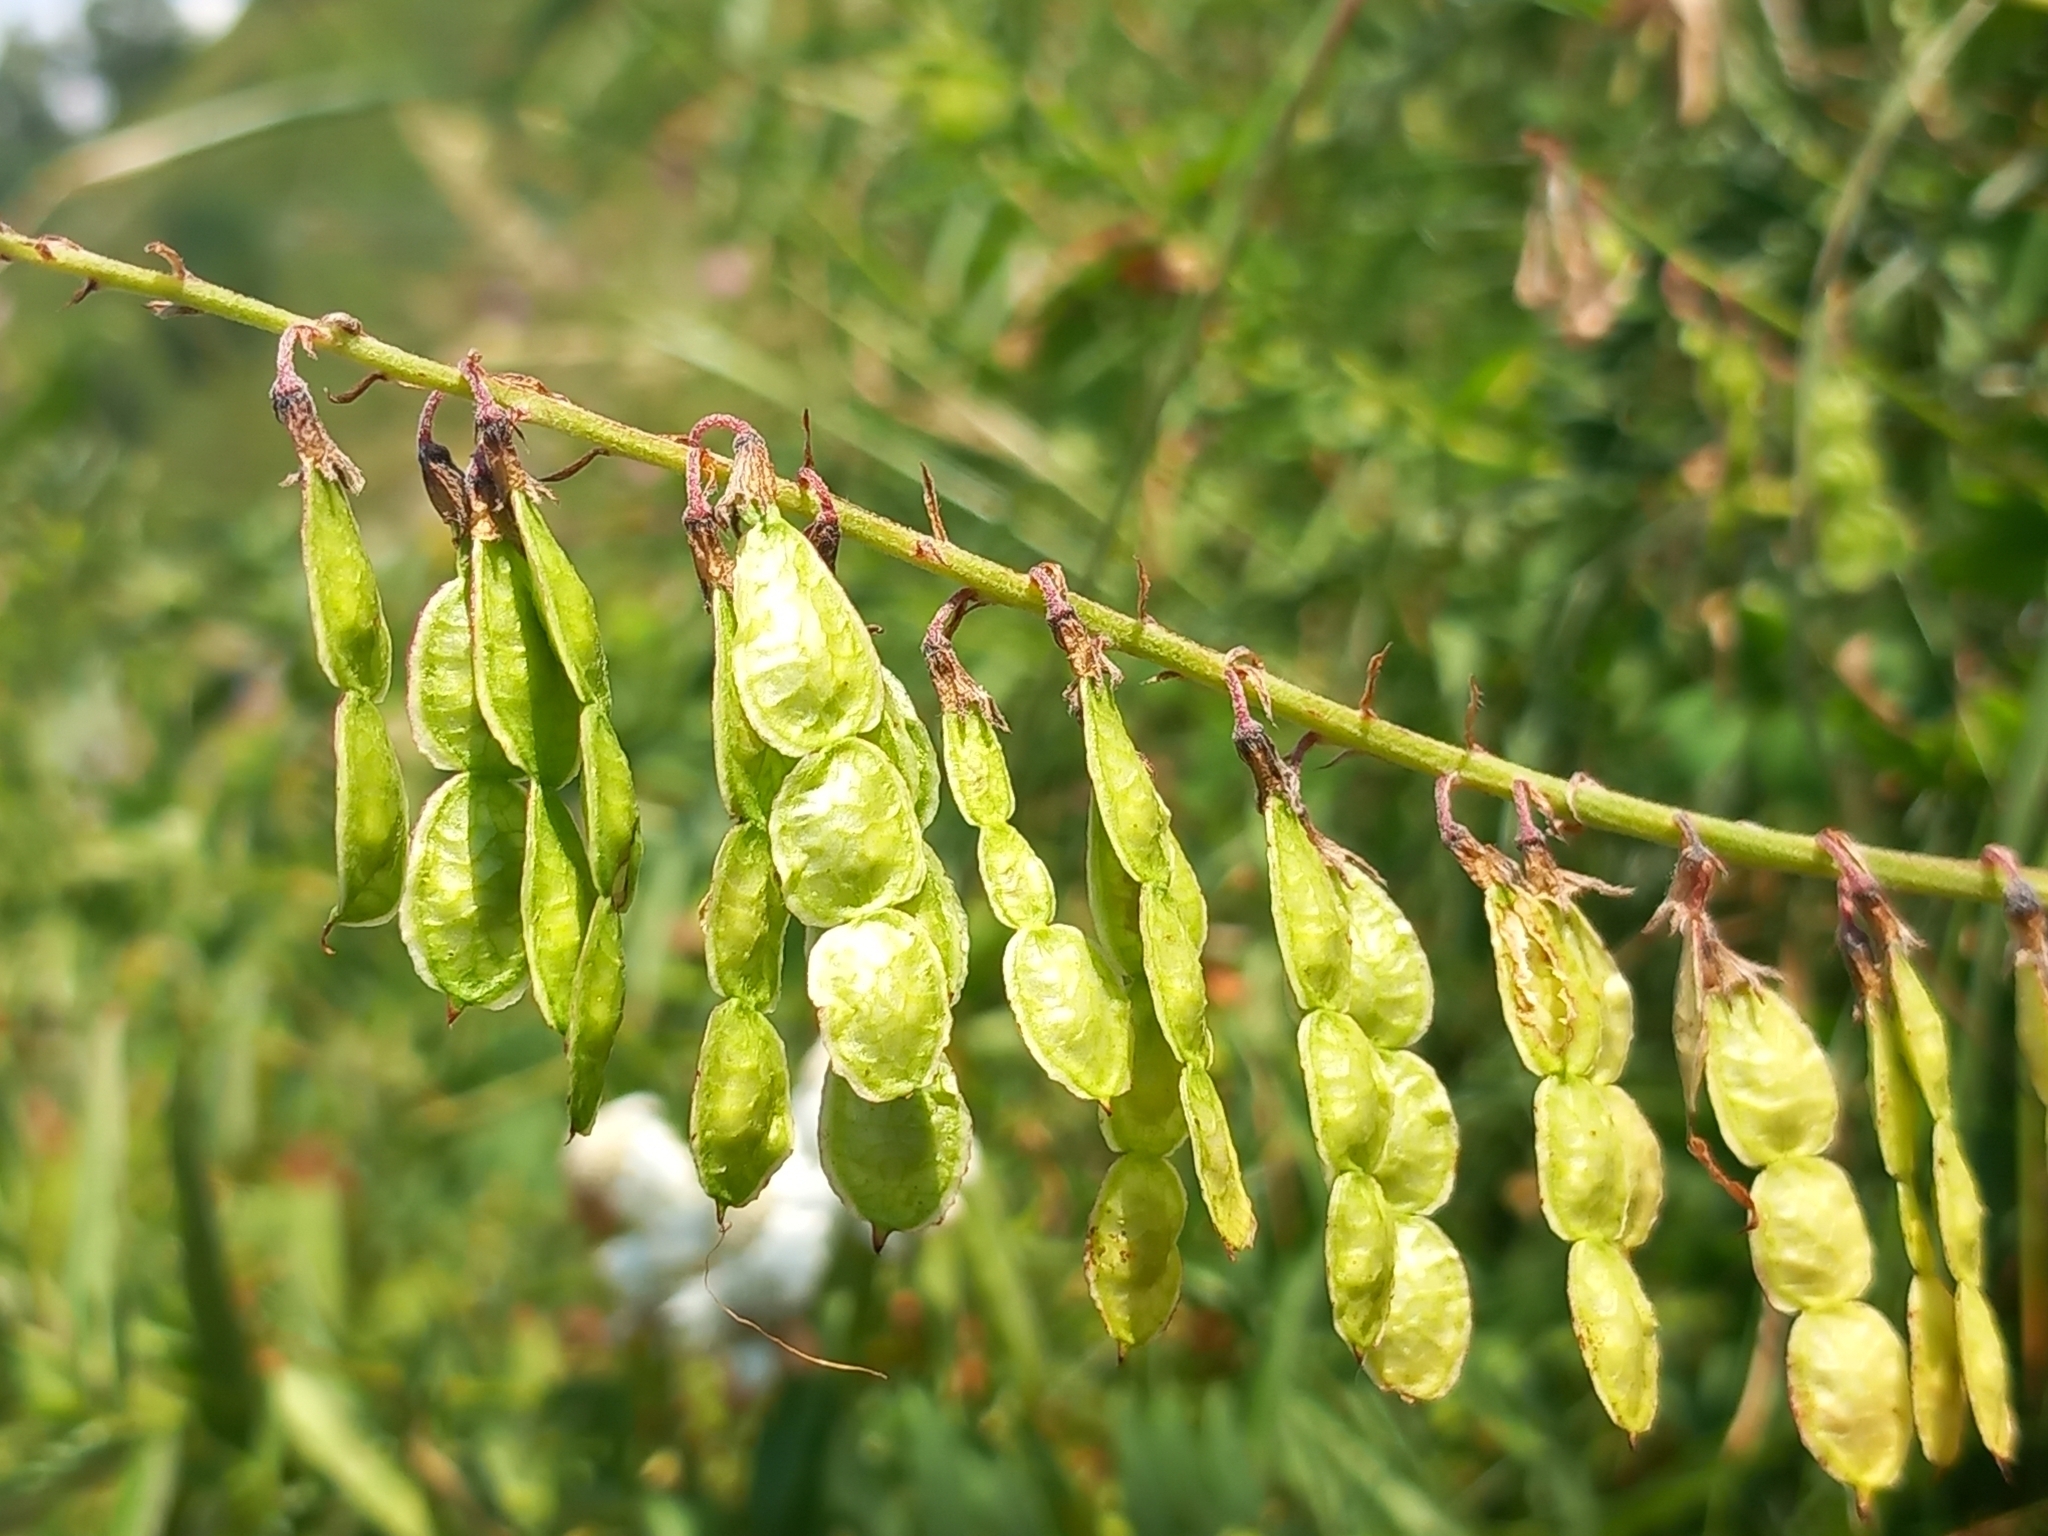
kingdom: Plantae
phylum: Tracheophyta
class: Magnoliopsida
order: Fabales
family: Fabaceae
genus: Hedysarum
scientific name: Hedysarum caucasicum
